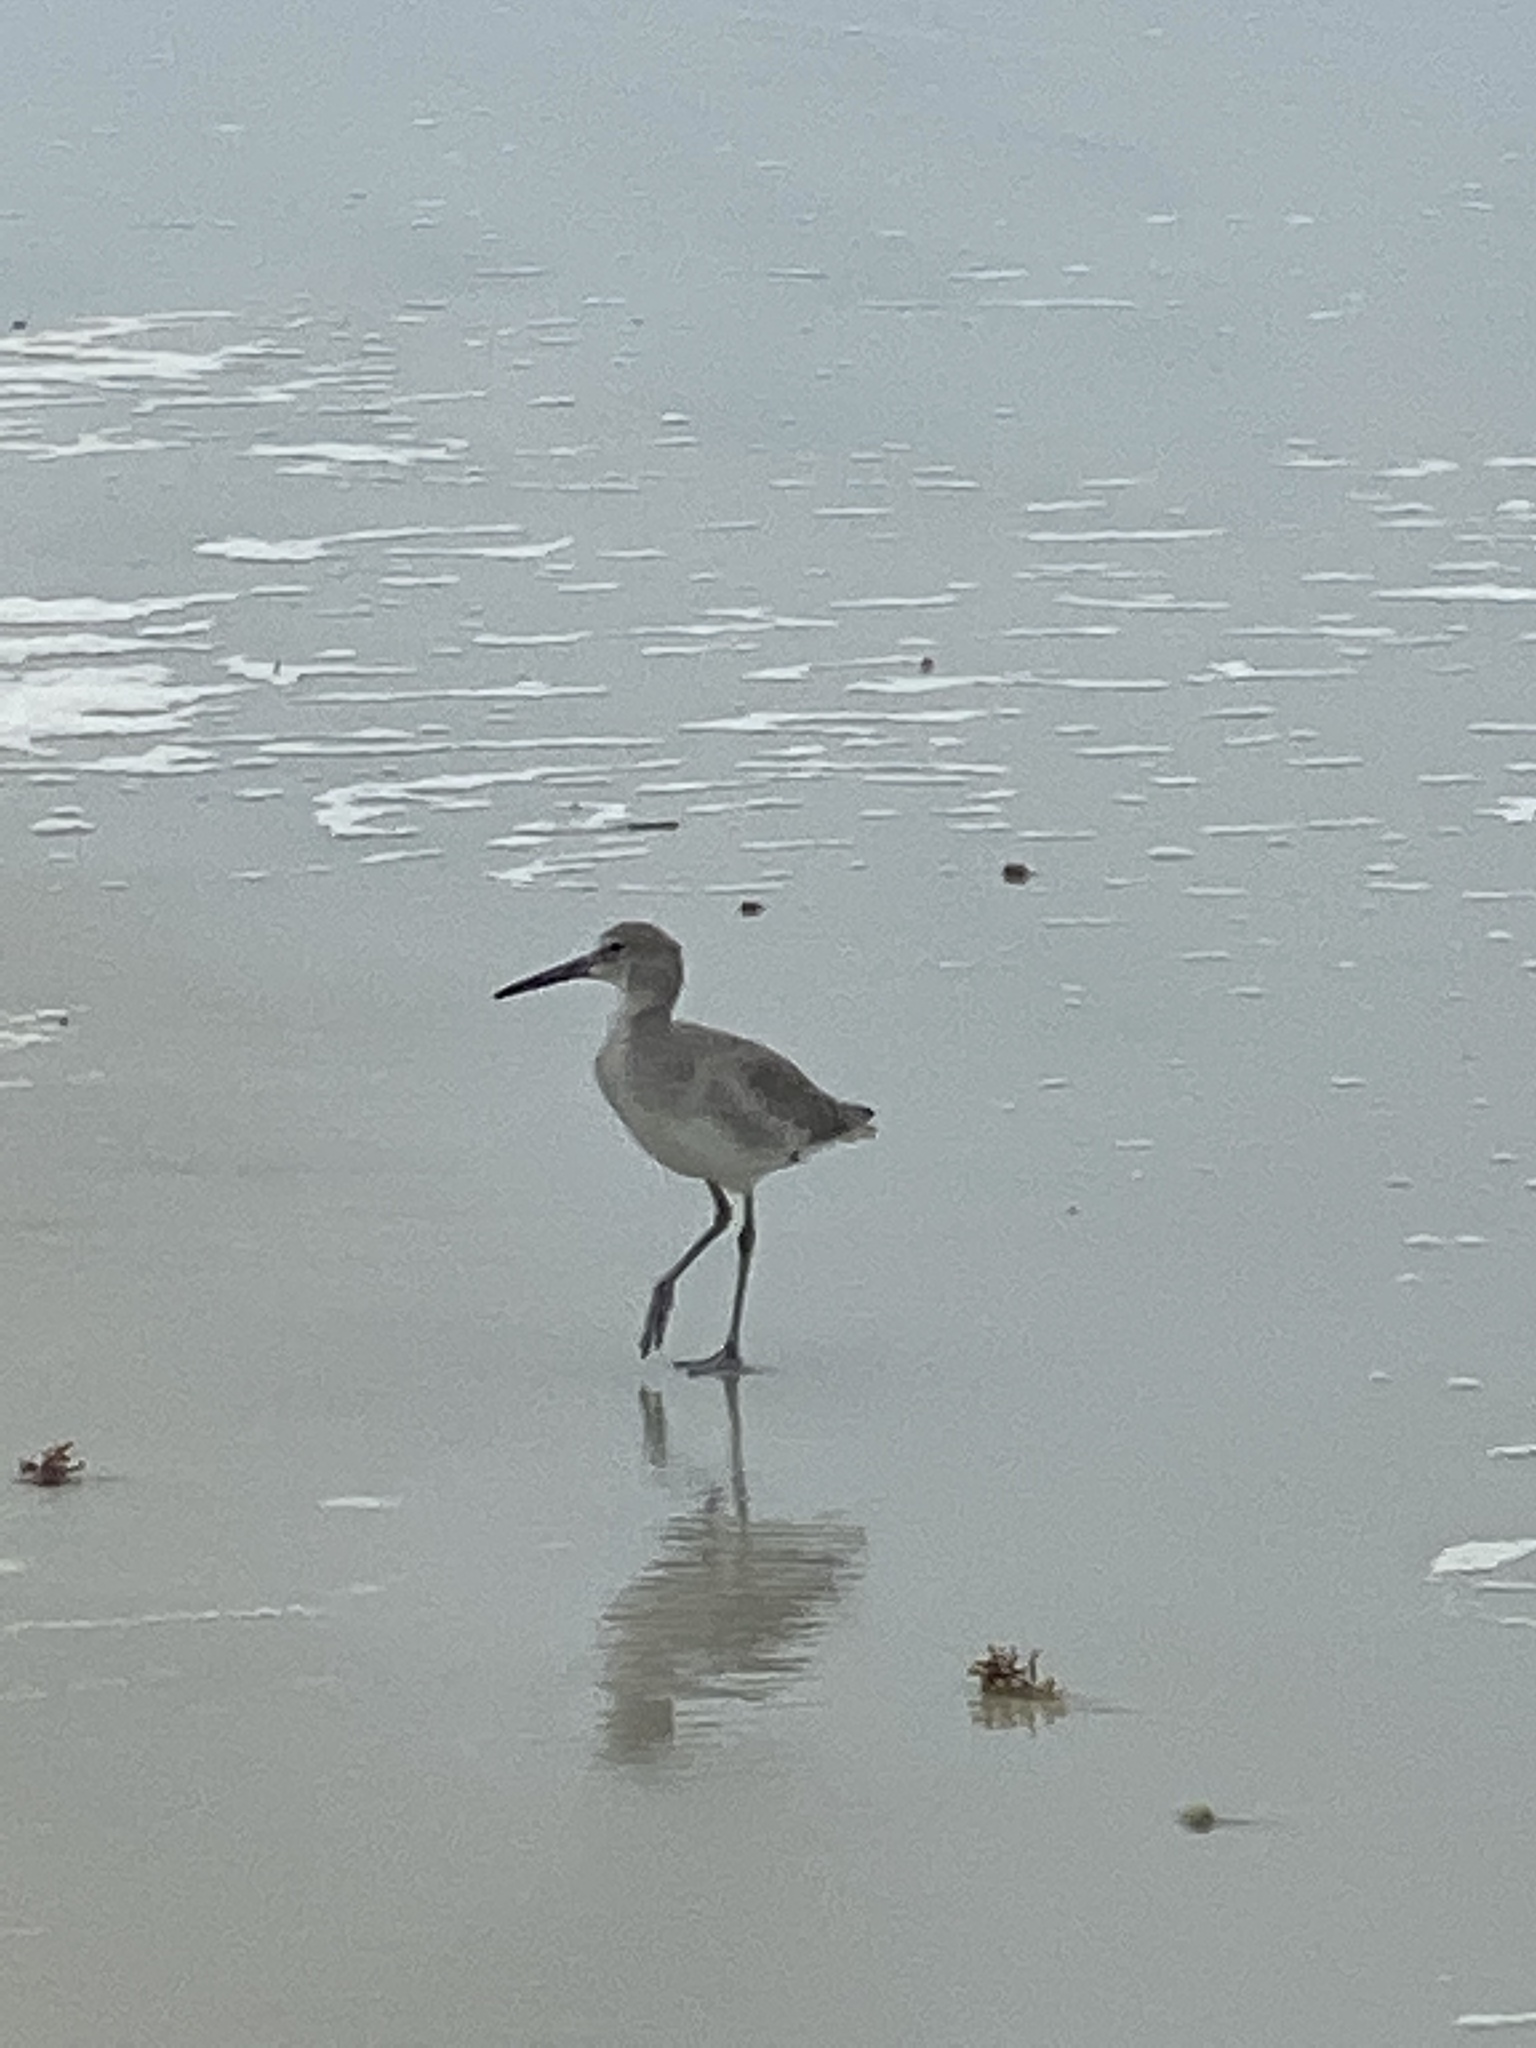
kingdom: Animalia
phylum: Chordata
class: Aves
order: Charadriiformes
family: Scolopacidae
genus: Tringa
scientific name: Tringa semipalmata
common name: Willet
